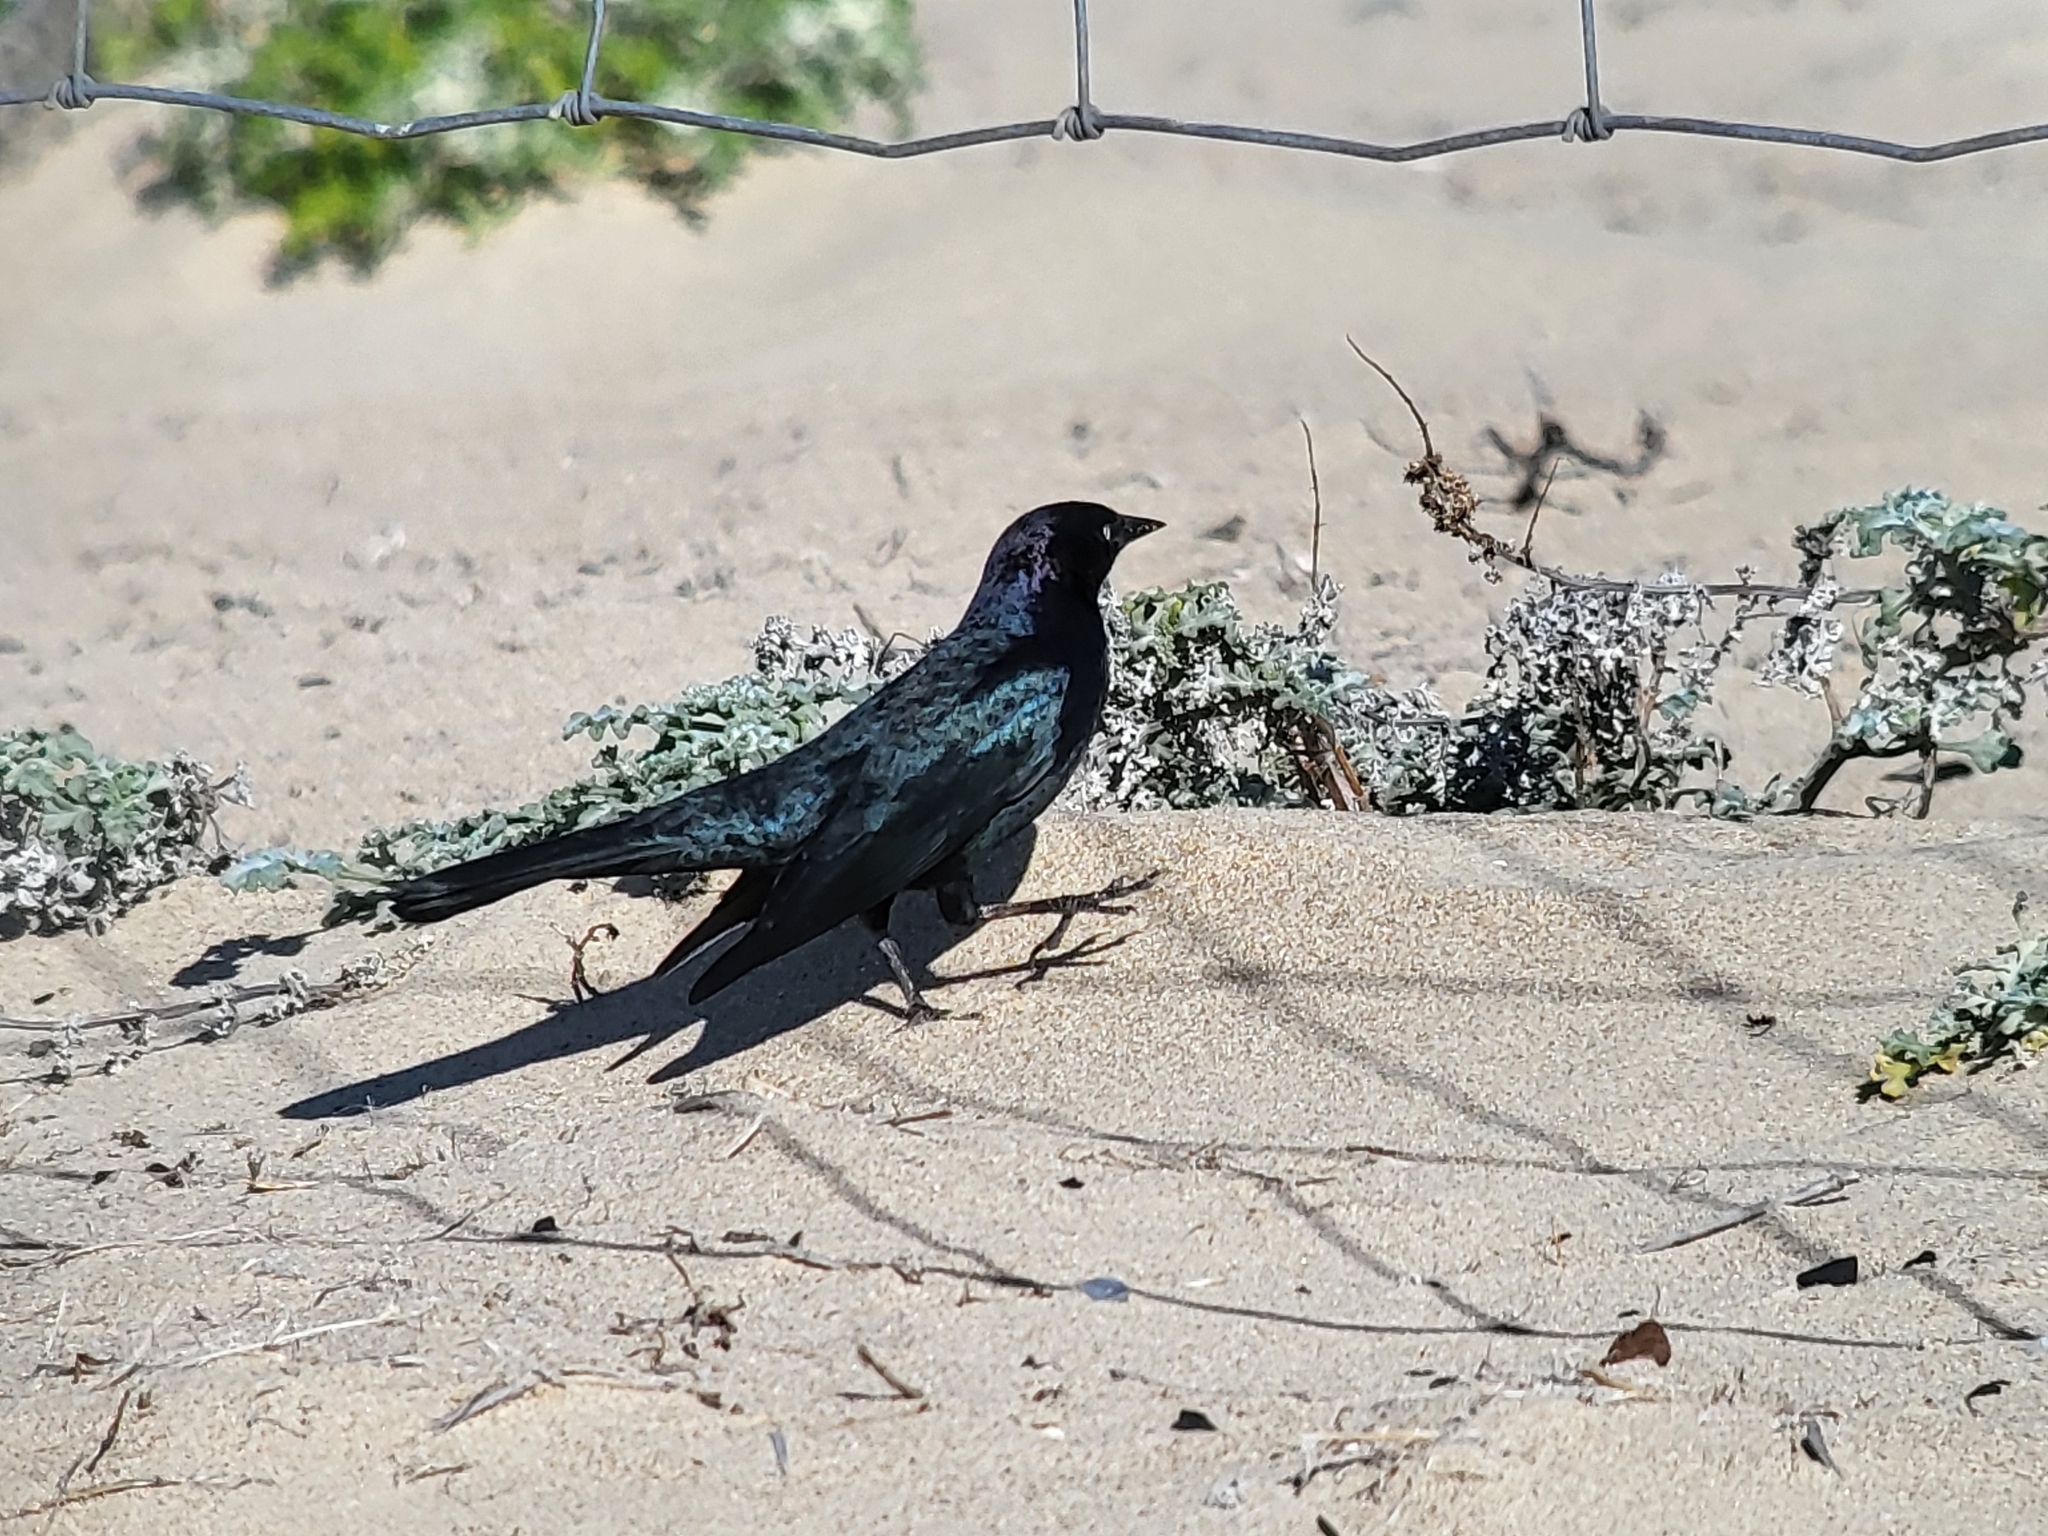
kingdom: Animalia
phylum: Chordata
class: Aves
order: Passeriformes
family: Icteridae
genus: Euphagus
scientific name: Euphagus cyanocephalus
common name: Brewer's blackbird
